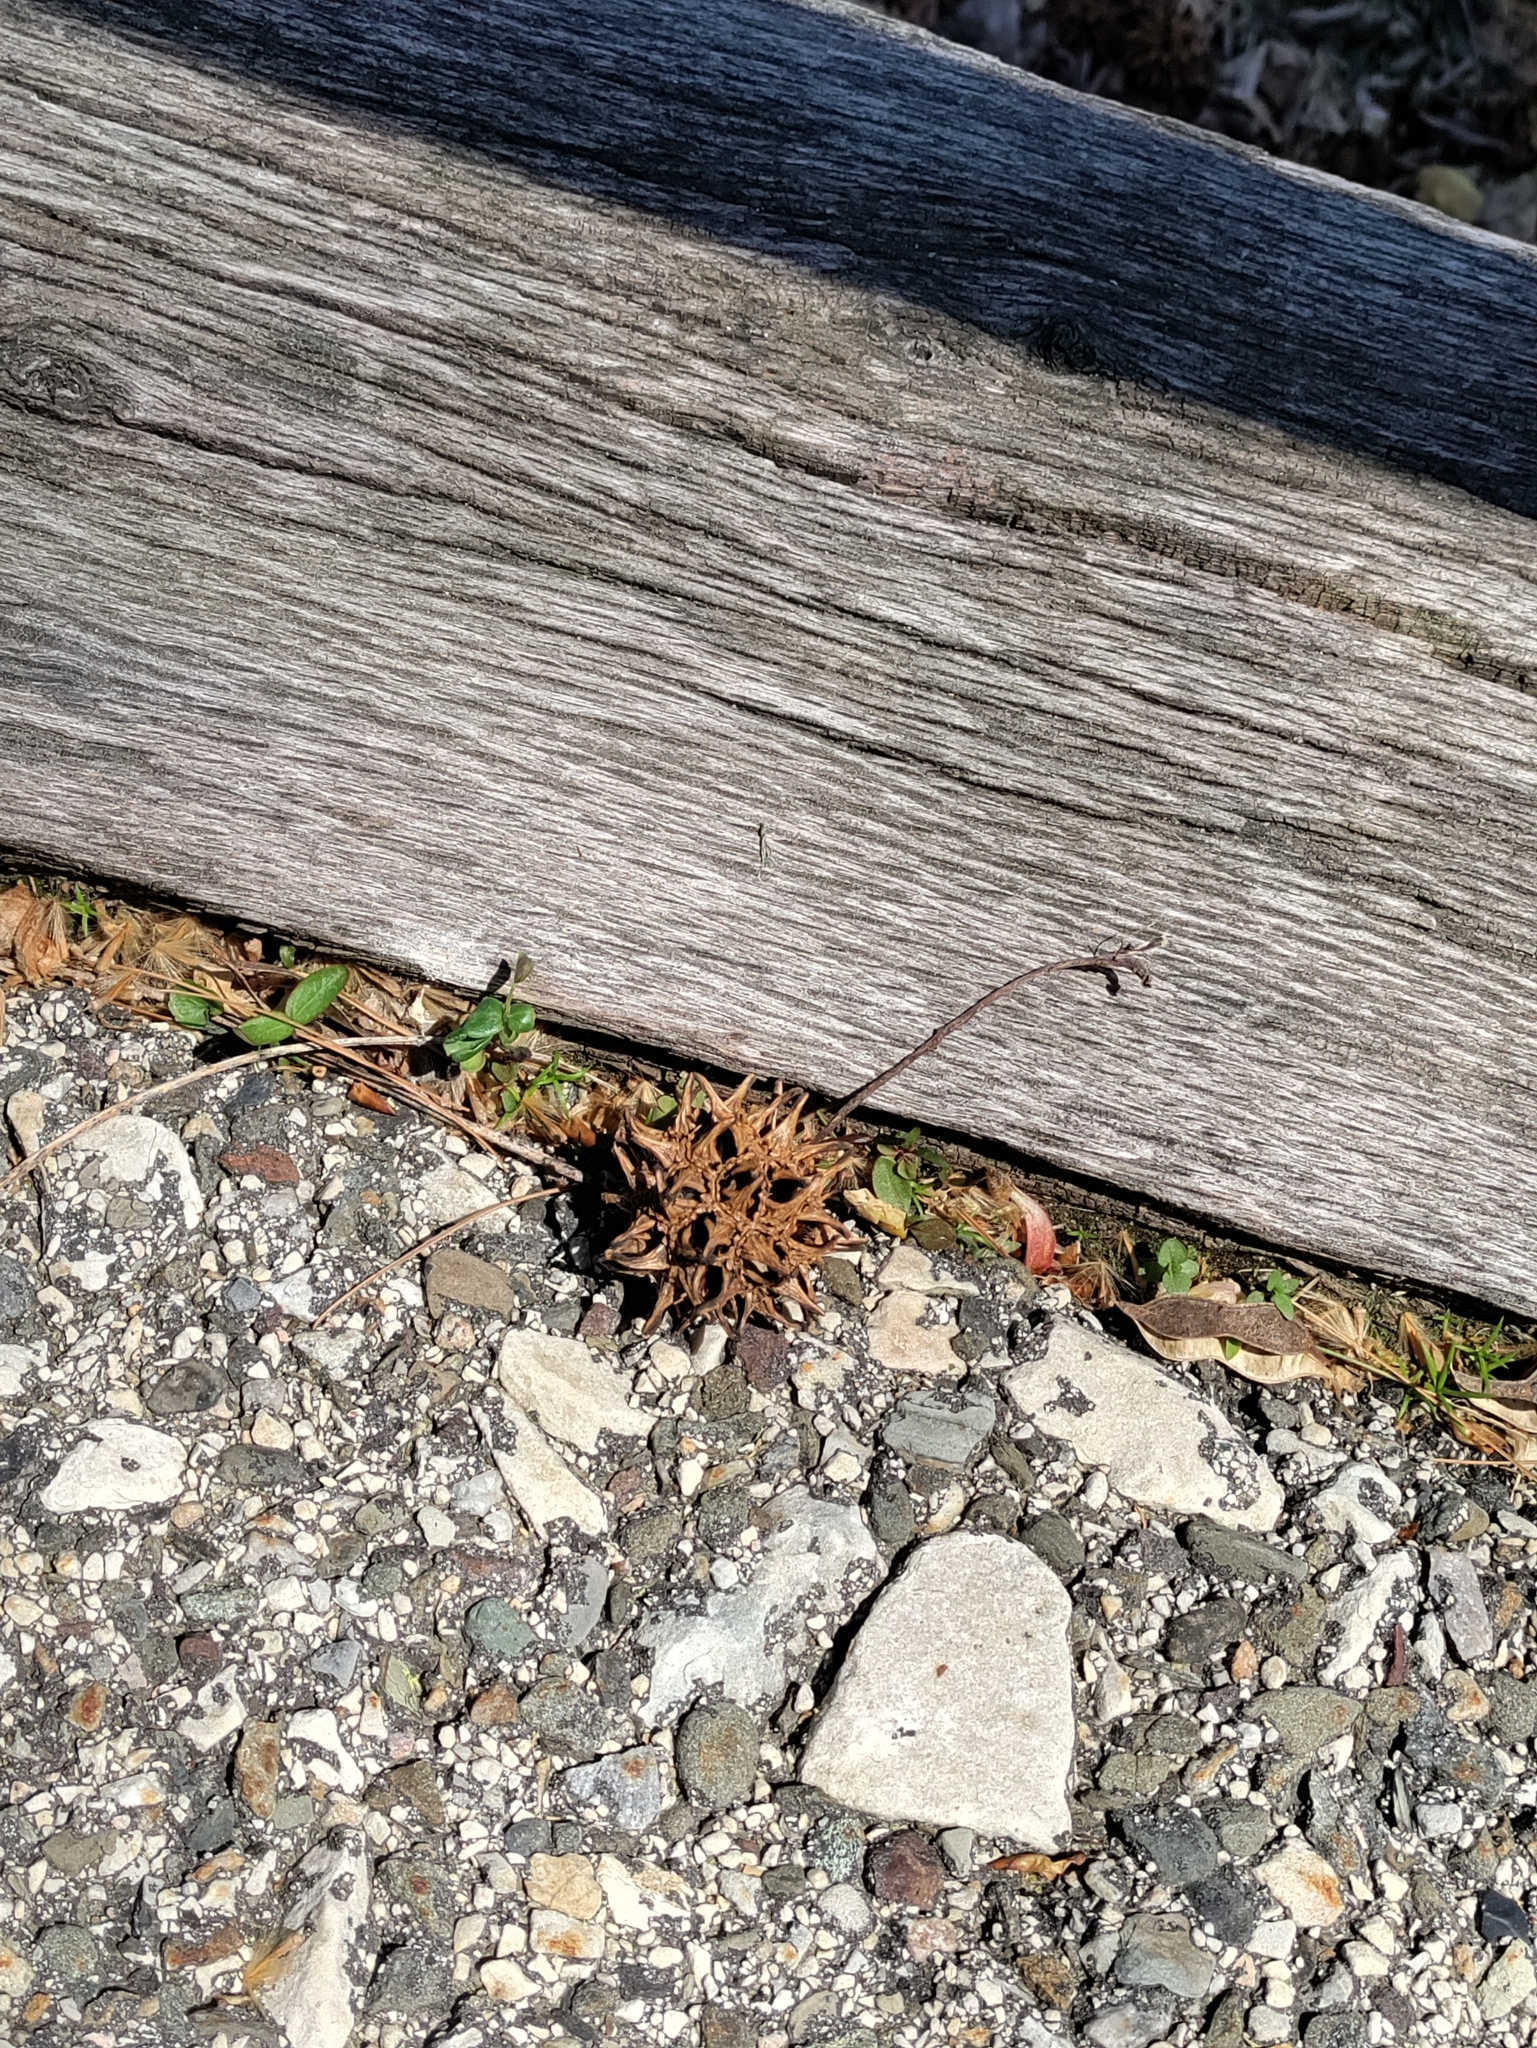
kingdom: Plantae
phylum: Tracheophyta
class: Magnoliopsida
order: Saxifragales
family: Altingiaceae
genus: Liquidambar
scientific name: Liquidambar styraciflua
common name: Sweet gum
